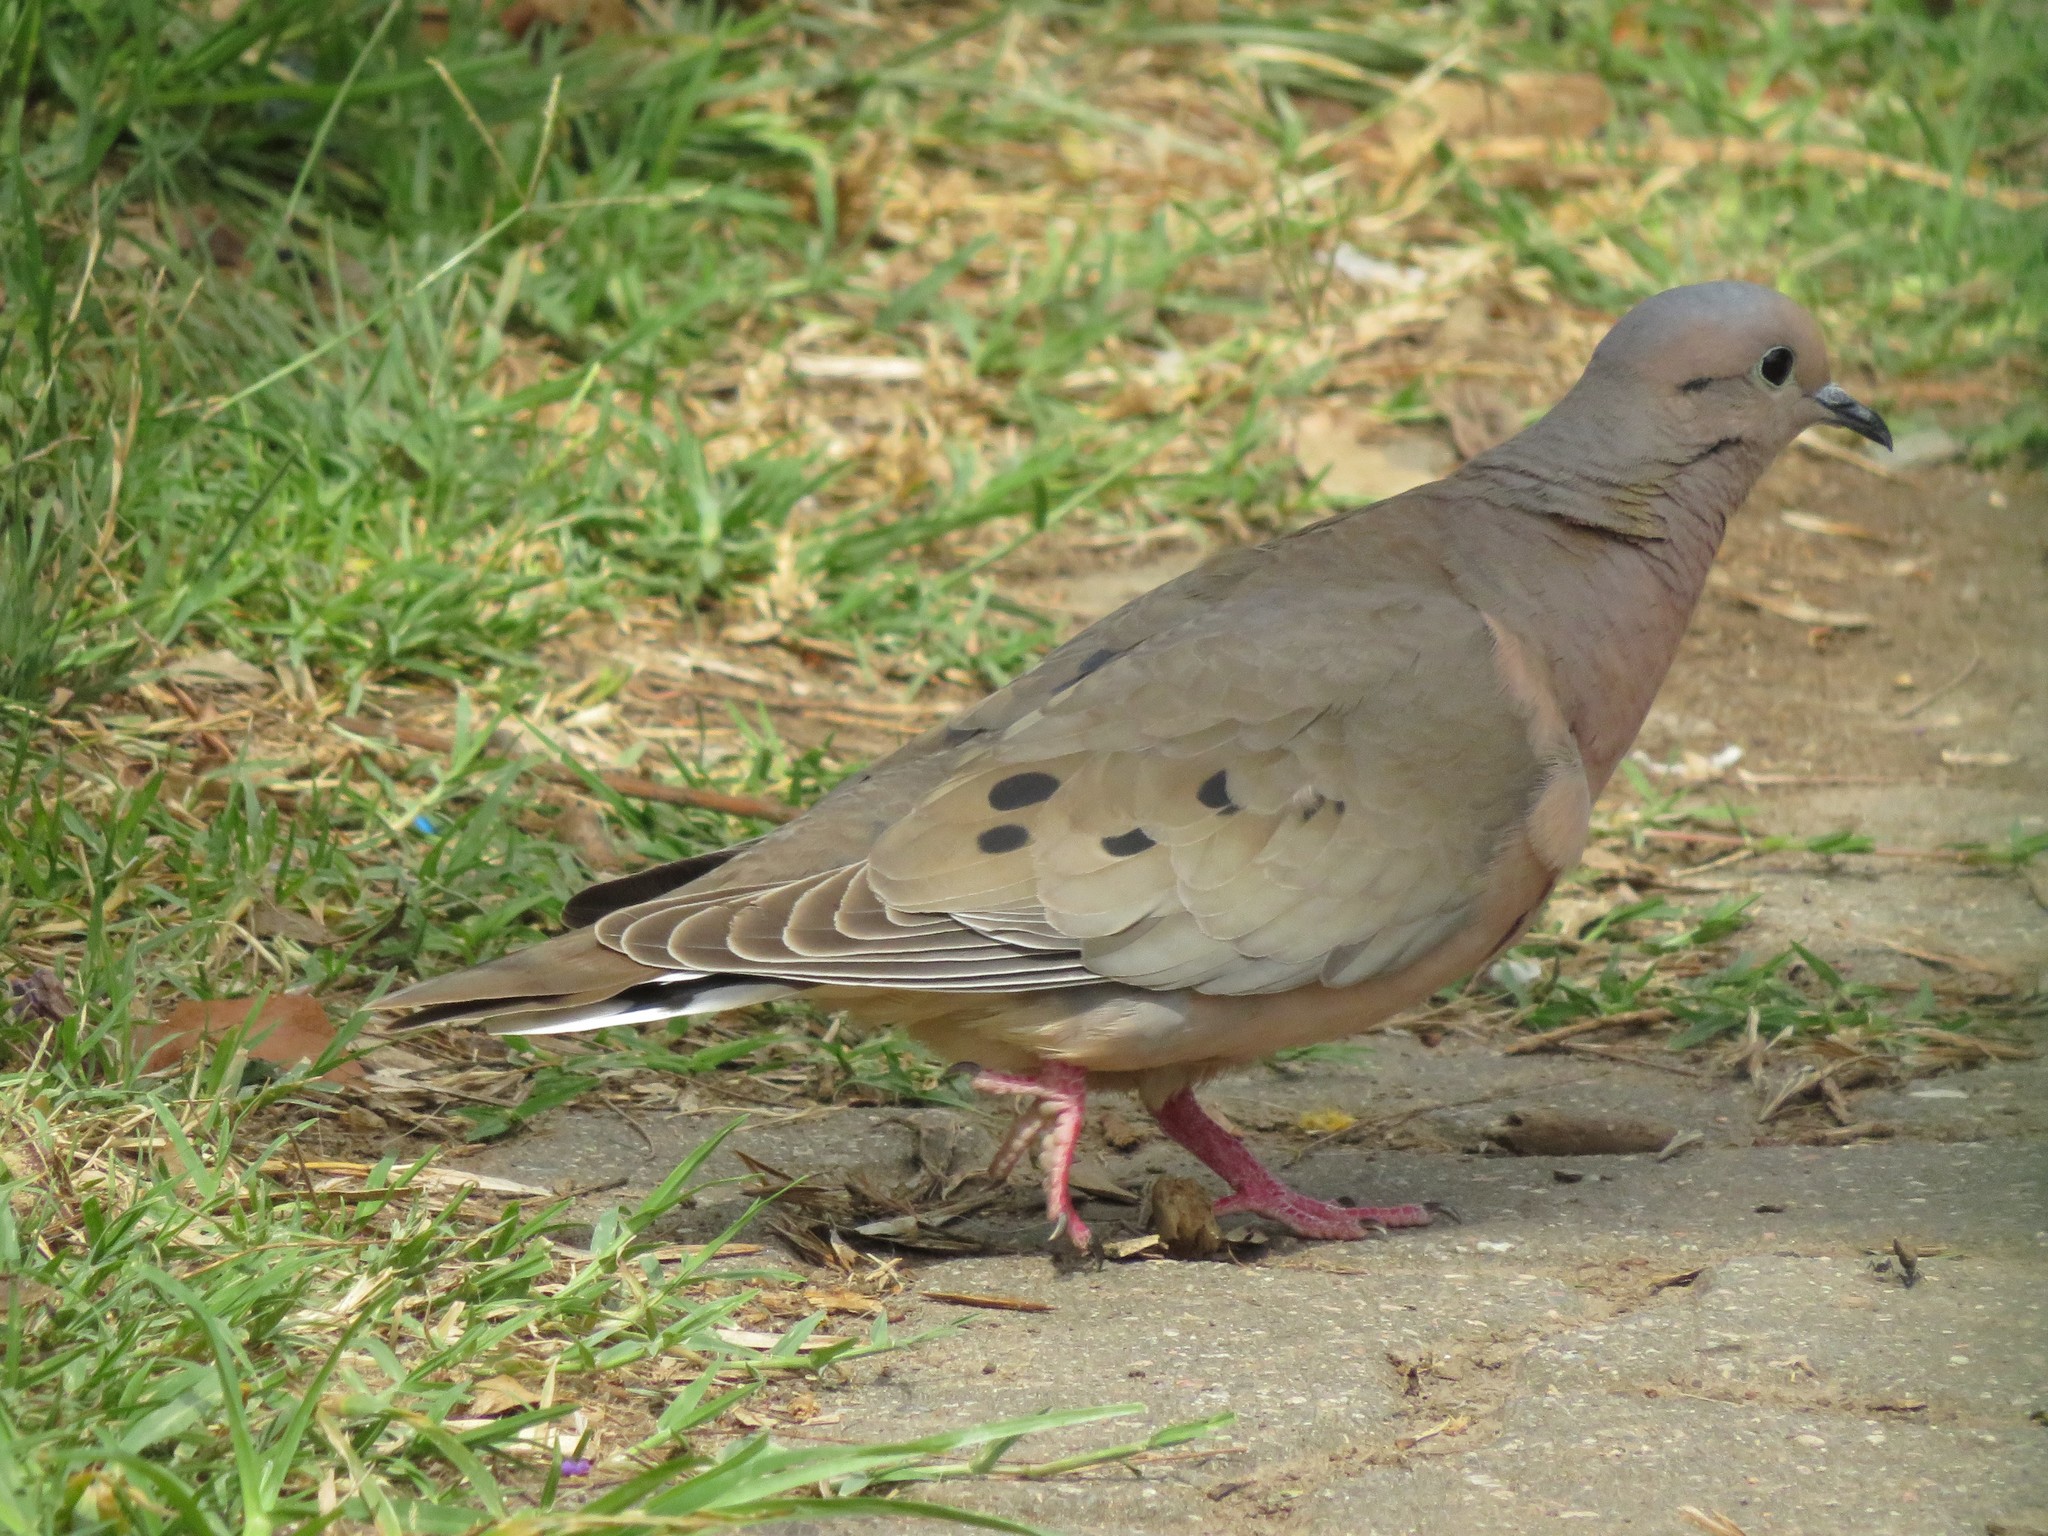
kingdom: Animalia
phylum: Chordata
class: Aves
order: Columbiformes
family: Columbidae
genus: Zenaida
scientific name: Zenaida auriculata
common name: Eared dove
